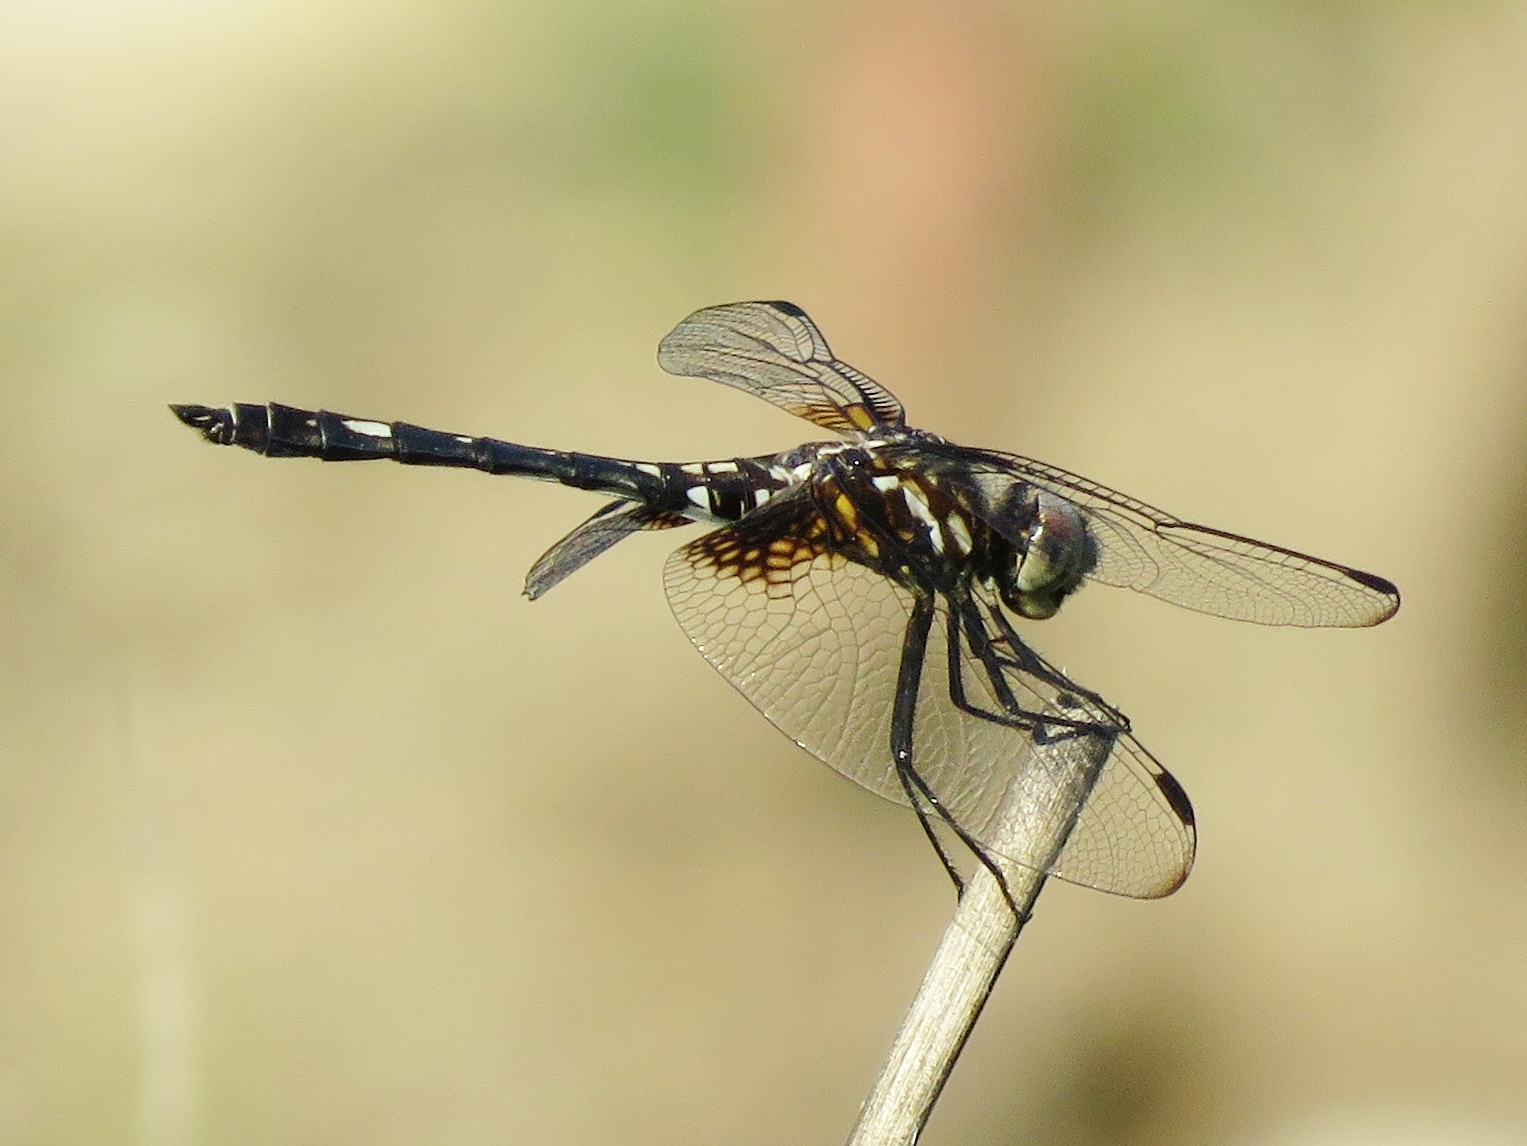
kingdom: Animalia
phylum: Arthropoda
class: Insecta
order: Odonata
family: Libellulidae
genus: Dythemis
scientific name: Dythemis fugax
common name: Checkered setwing
